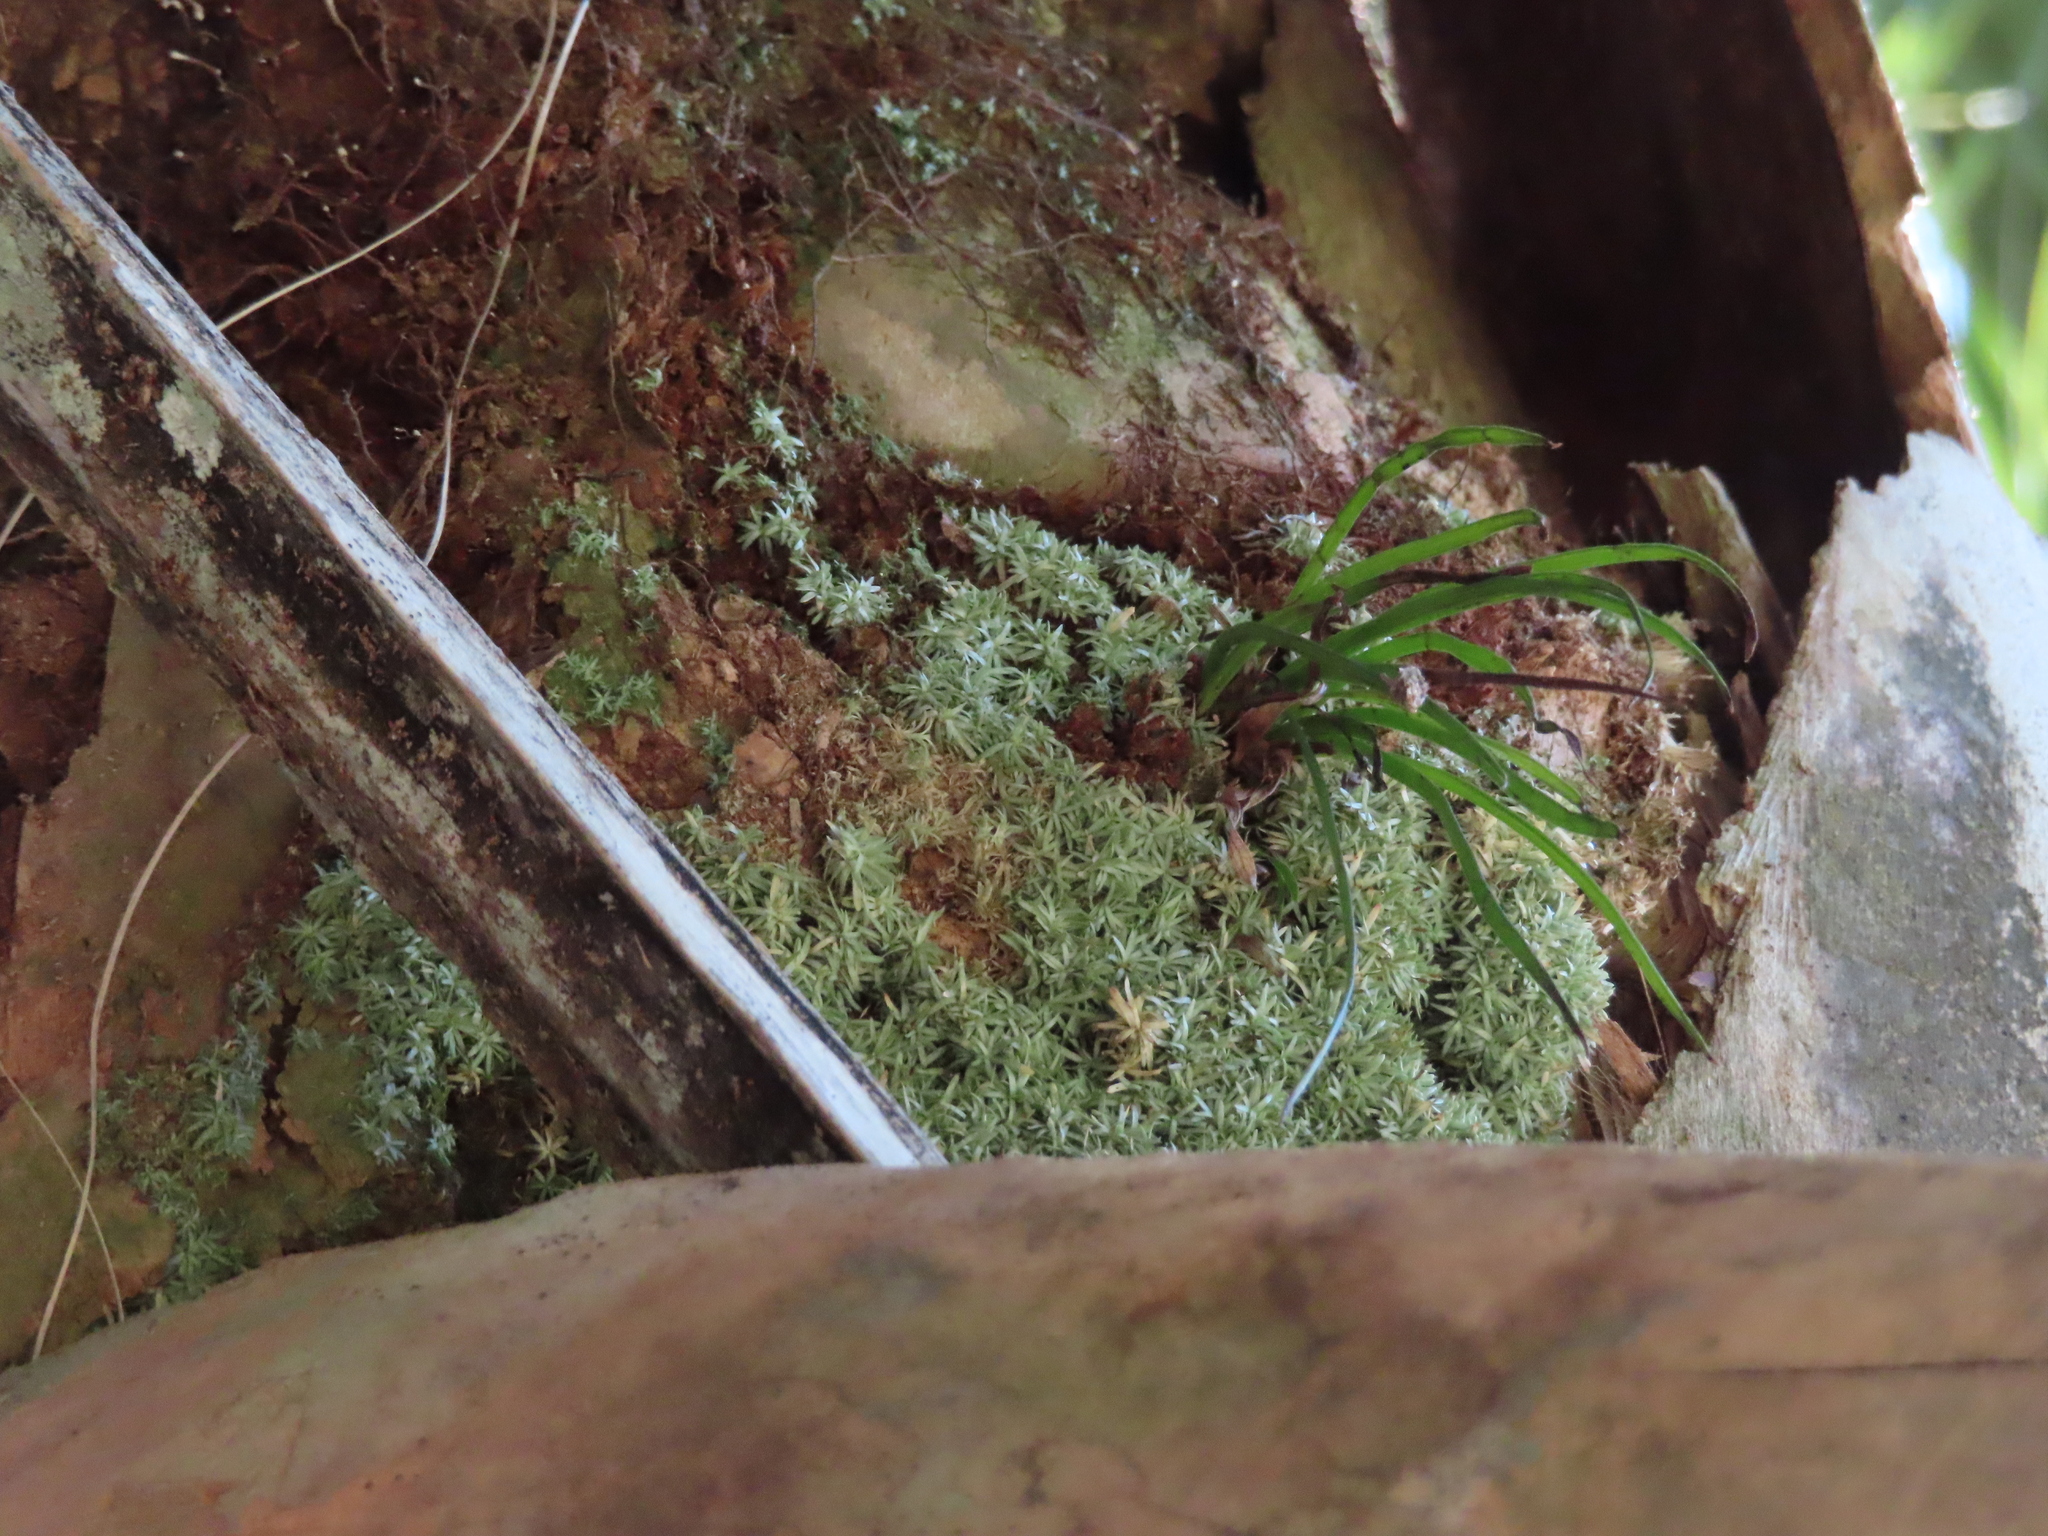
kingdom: Plantae
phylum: Bryophyta
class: Bryopsida
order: Dicranales
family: Octoblepharaceae
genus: Octoblepharum
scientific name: Octoblepharum albidum
